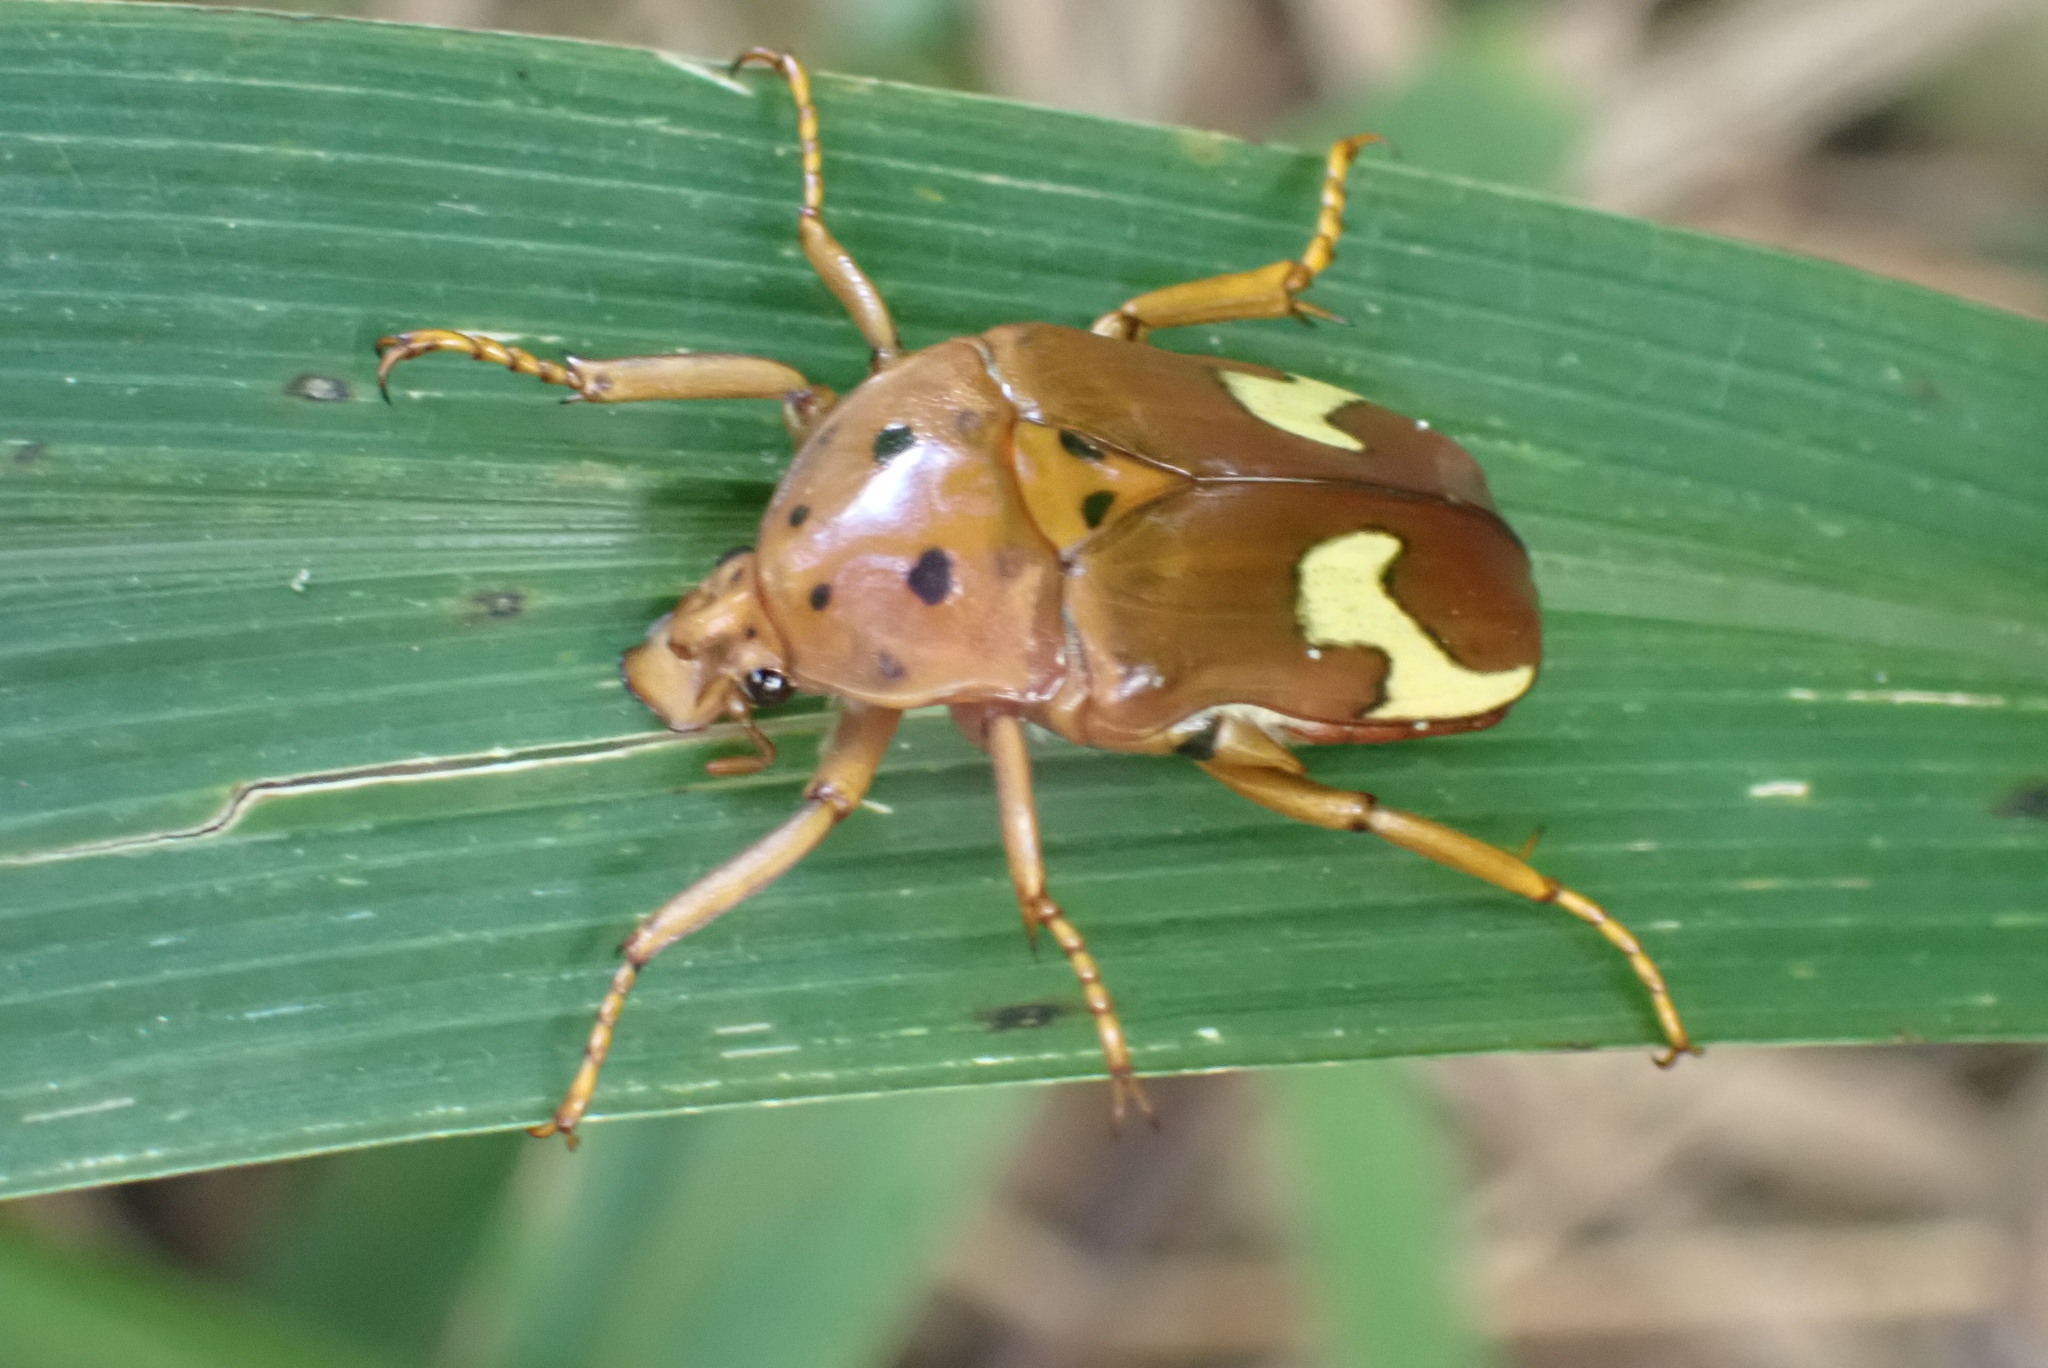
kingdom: Animalia
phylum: Arthropoda
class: Insecta
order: Coleoptera
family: Scarabaeidae
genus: Anisorrhina
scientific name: Anisorrhina flavomaculata
